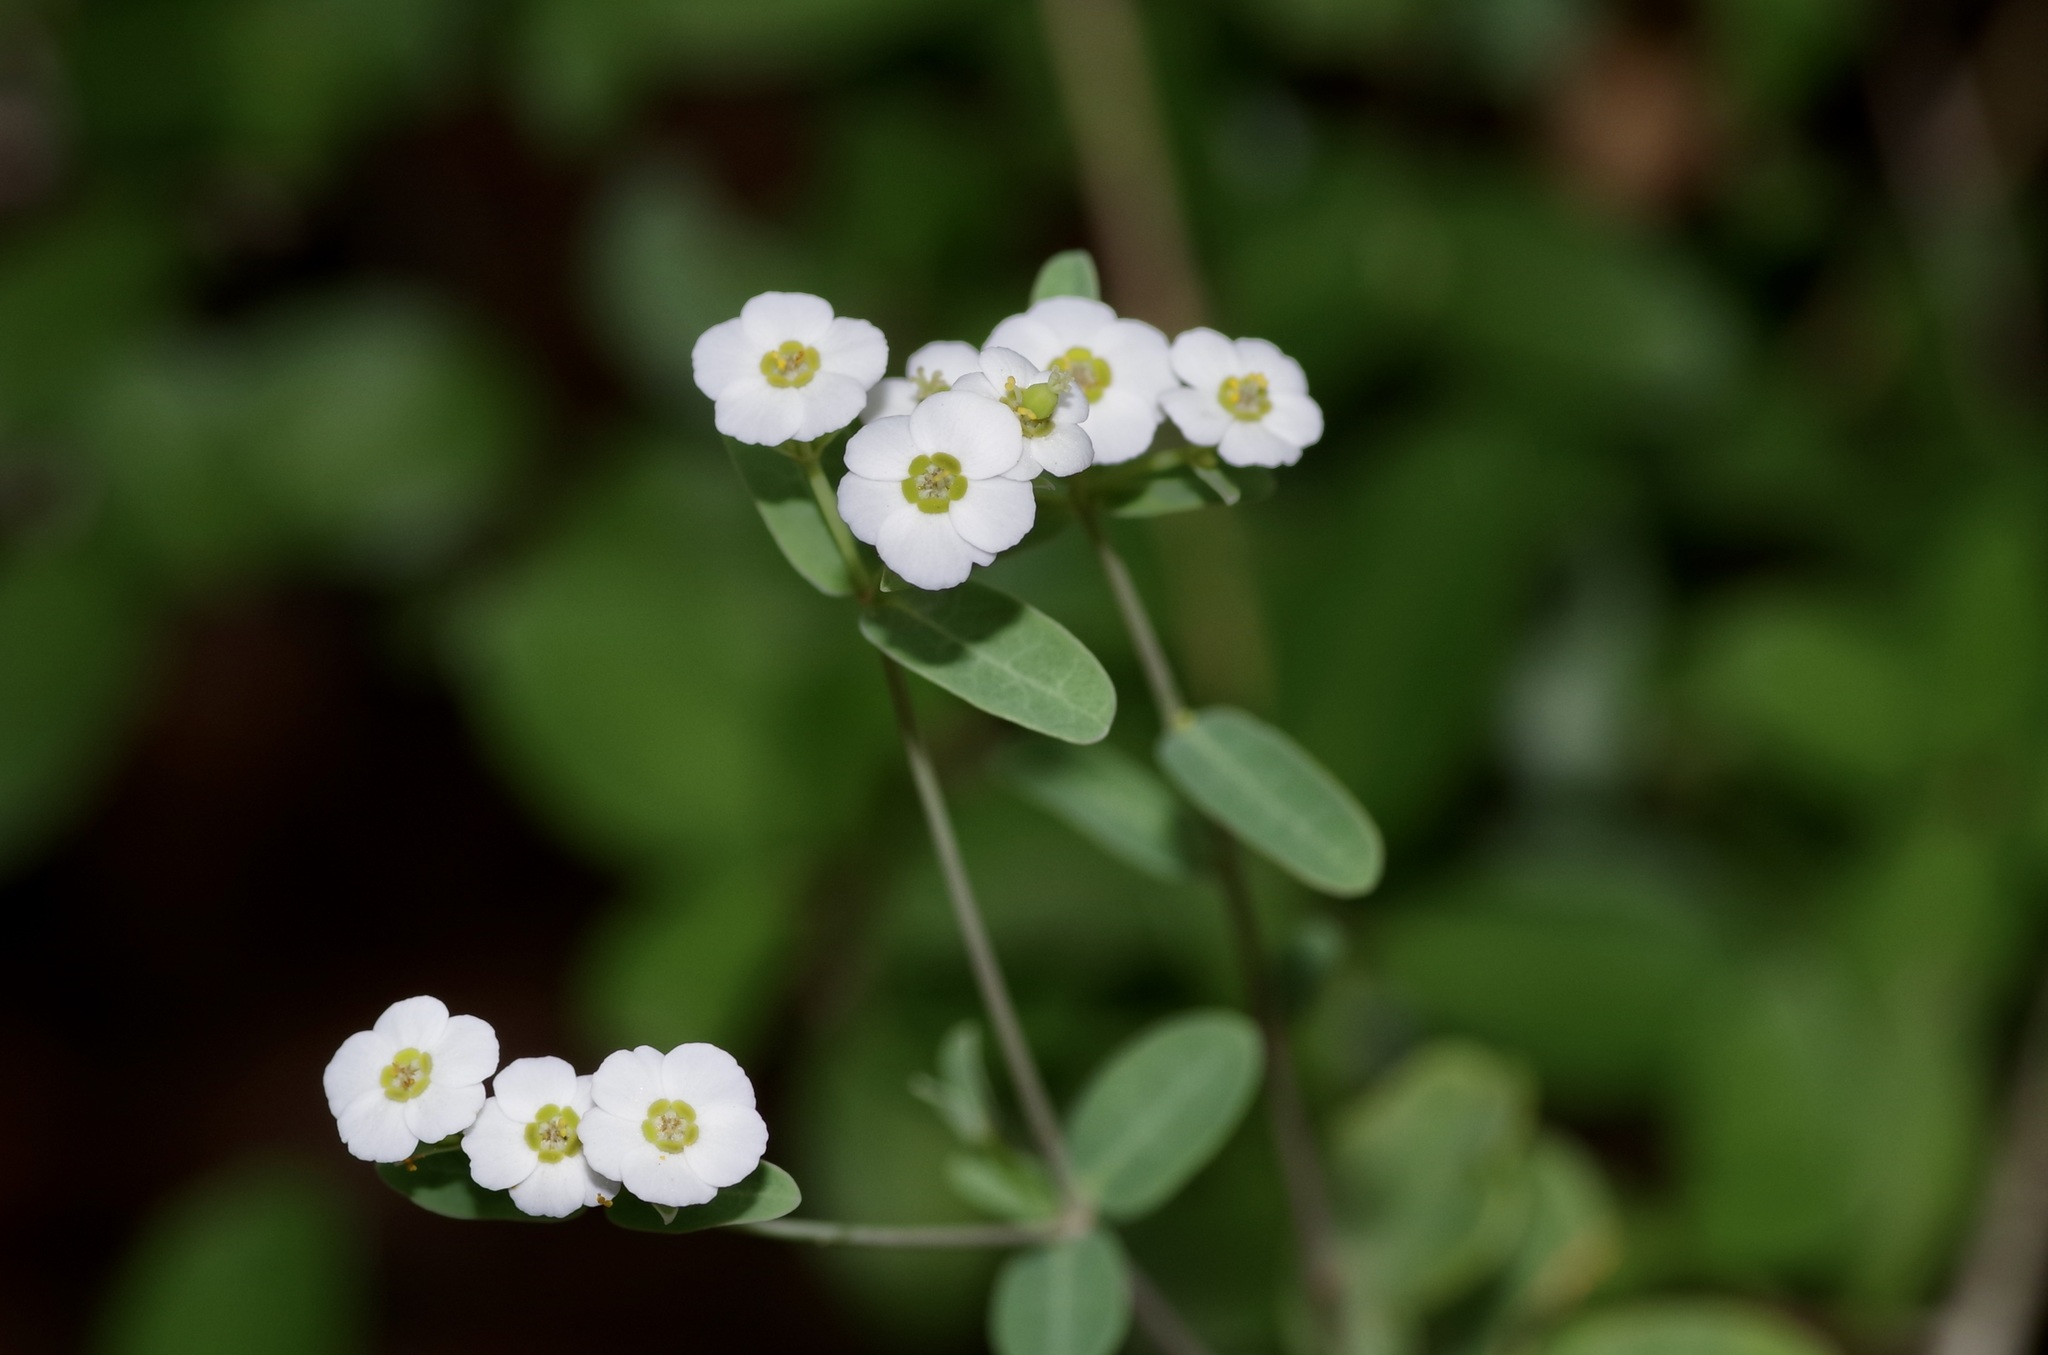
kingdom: Plantae
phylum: Tracheophyta
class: Magnoliopsida
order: Malpighiales
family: Euphorbiaceae
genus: Euphorbia
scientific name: Euphorbia corollata
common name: Flowering spurge
